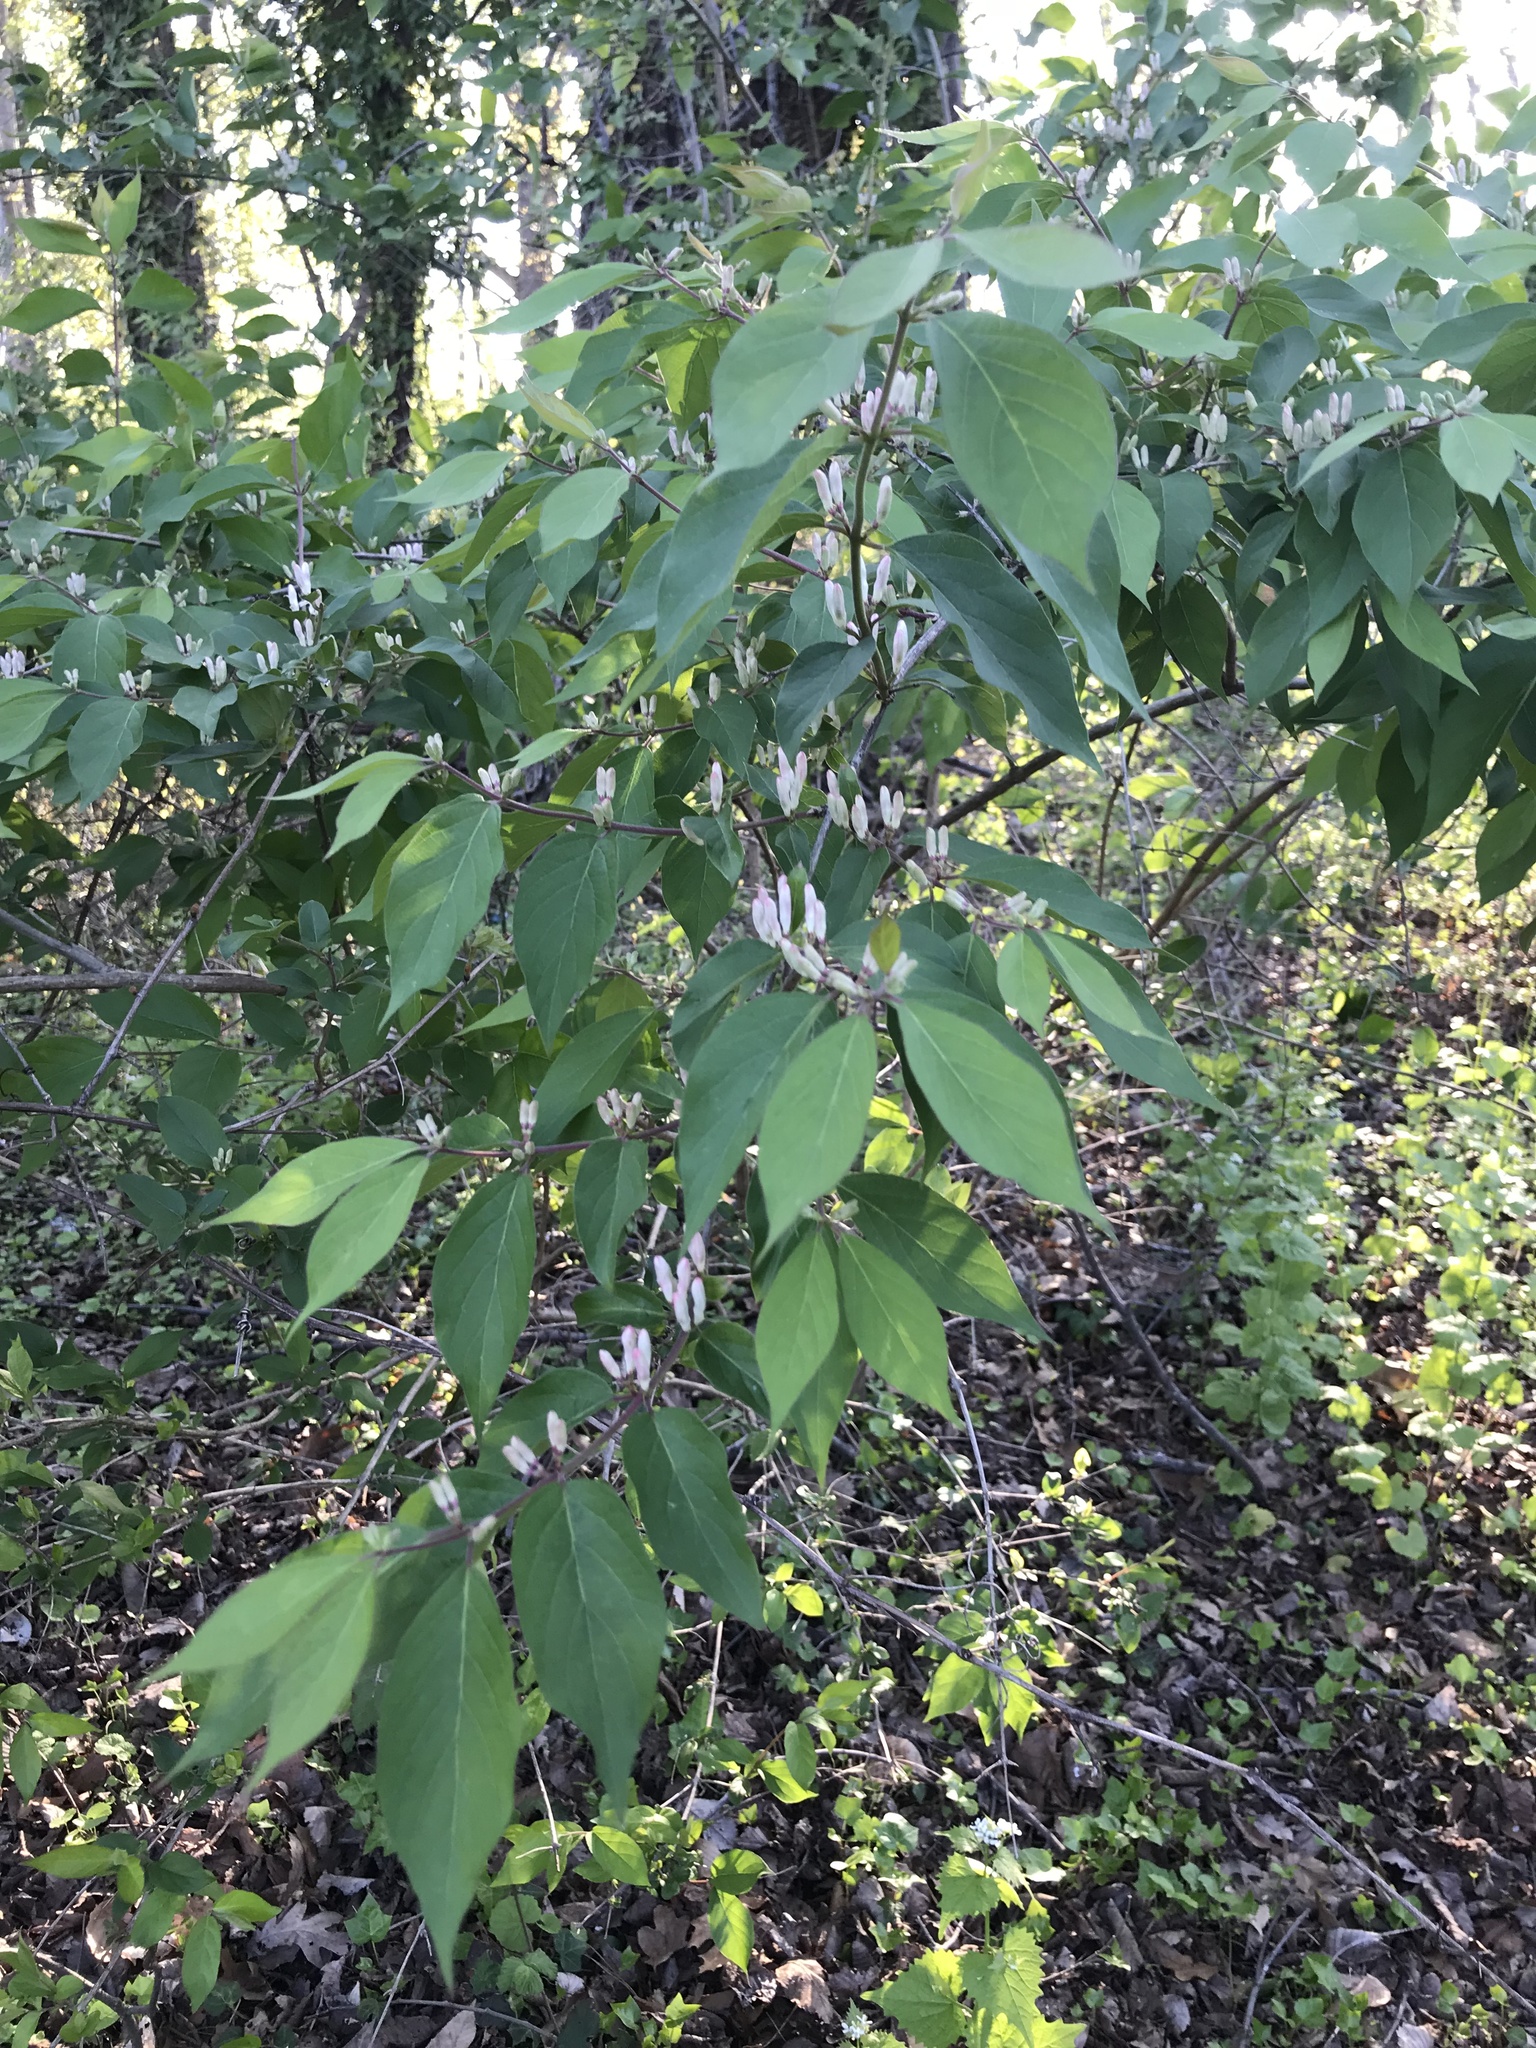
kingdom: Plantae
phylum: Tracheophyta
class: Magnoliopsida
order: Dipsacales
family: Caprifoliaceae
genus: Lonicera
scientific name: Lonicera maackii
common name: Amur honeysuckle
